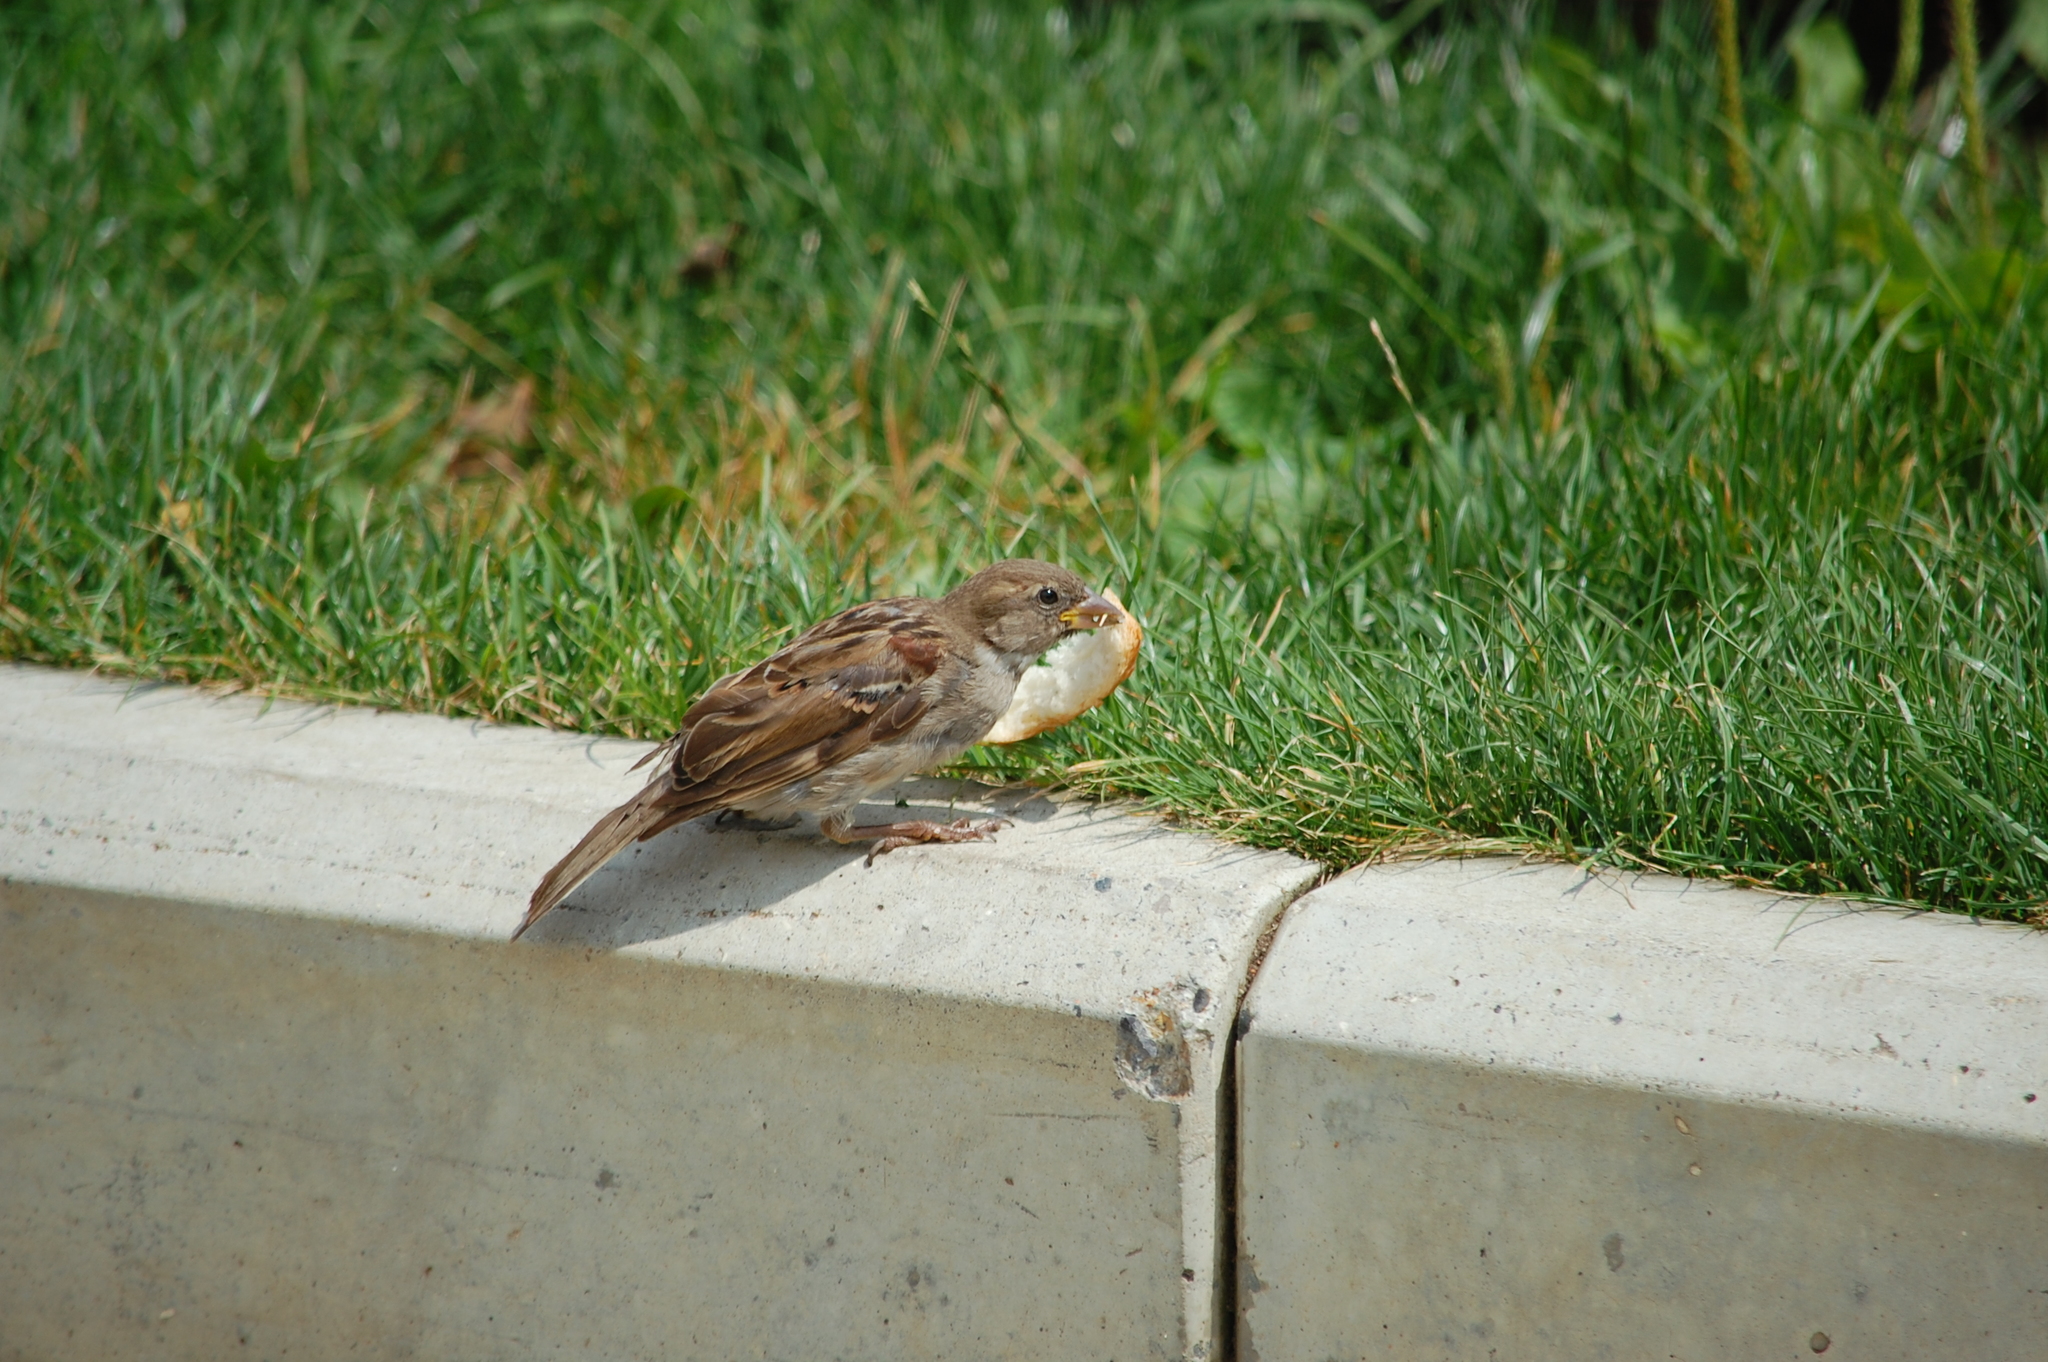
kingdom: Animalia
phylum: Chordata
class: Aves
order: Passeriformes
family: Passeridae
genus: Passer
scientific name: Passer domesticus
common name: House sparrow
